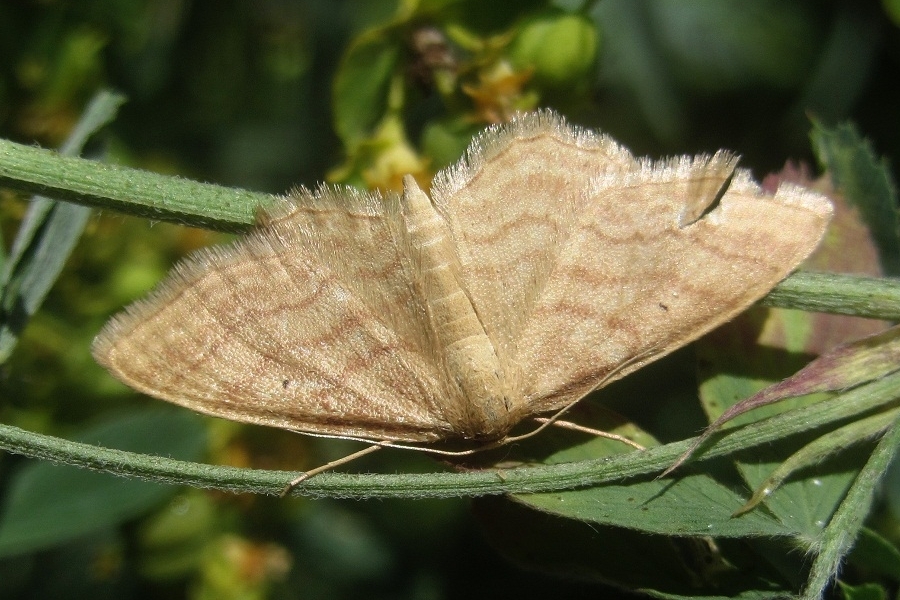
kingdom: Animalia
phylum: Arthropoda
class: Insecta
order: Lepidoptera
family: Geometridae
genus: Idaea
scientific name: Idaea rufaria
